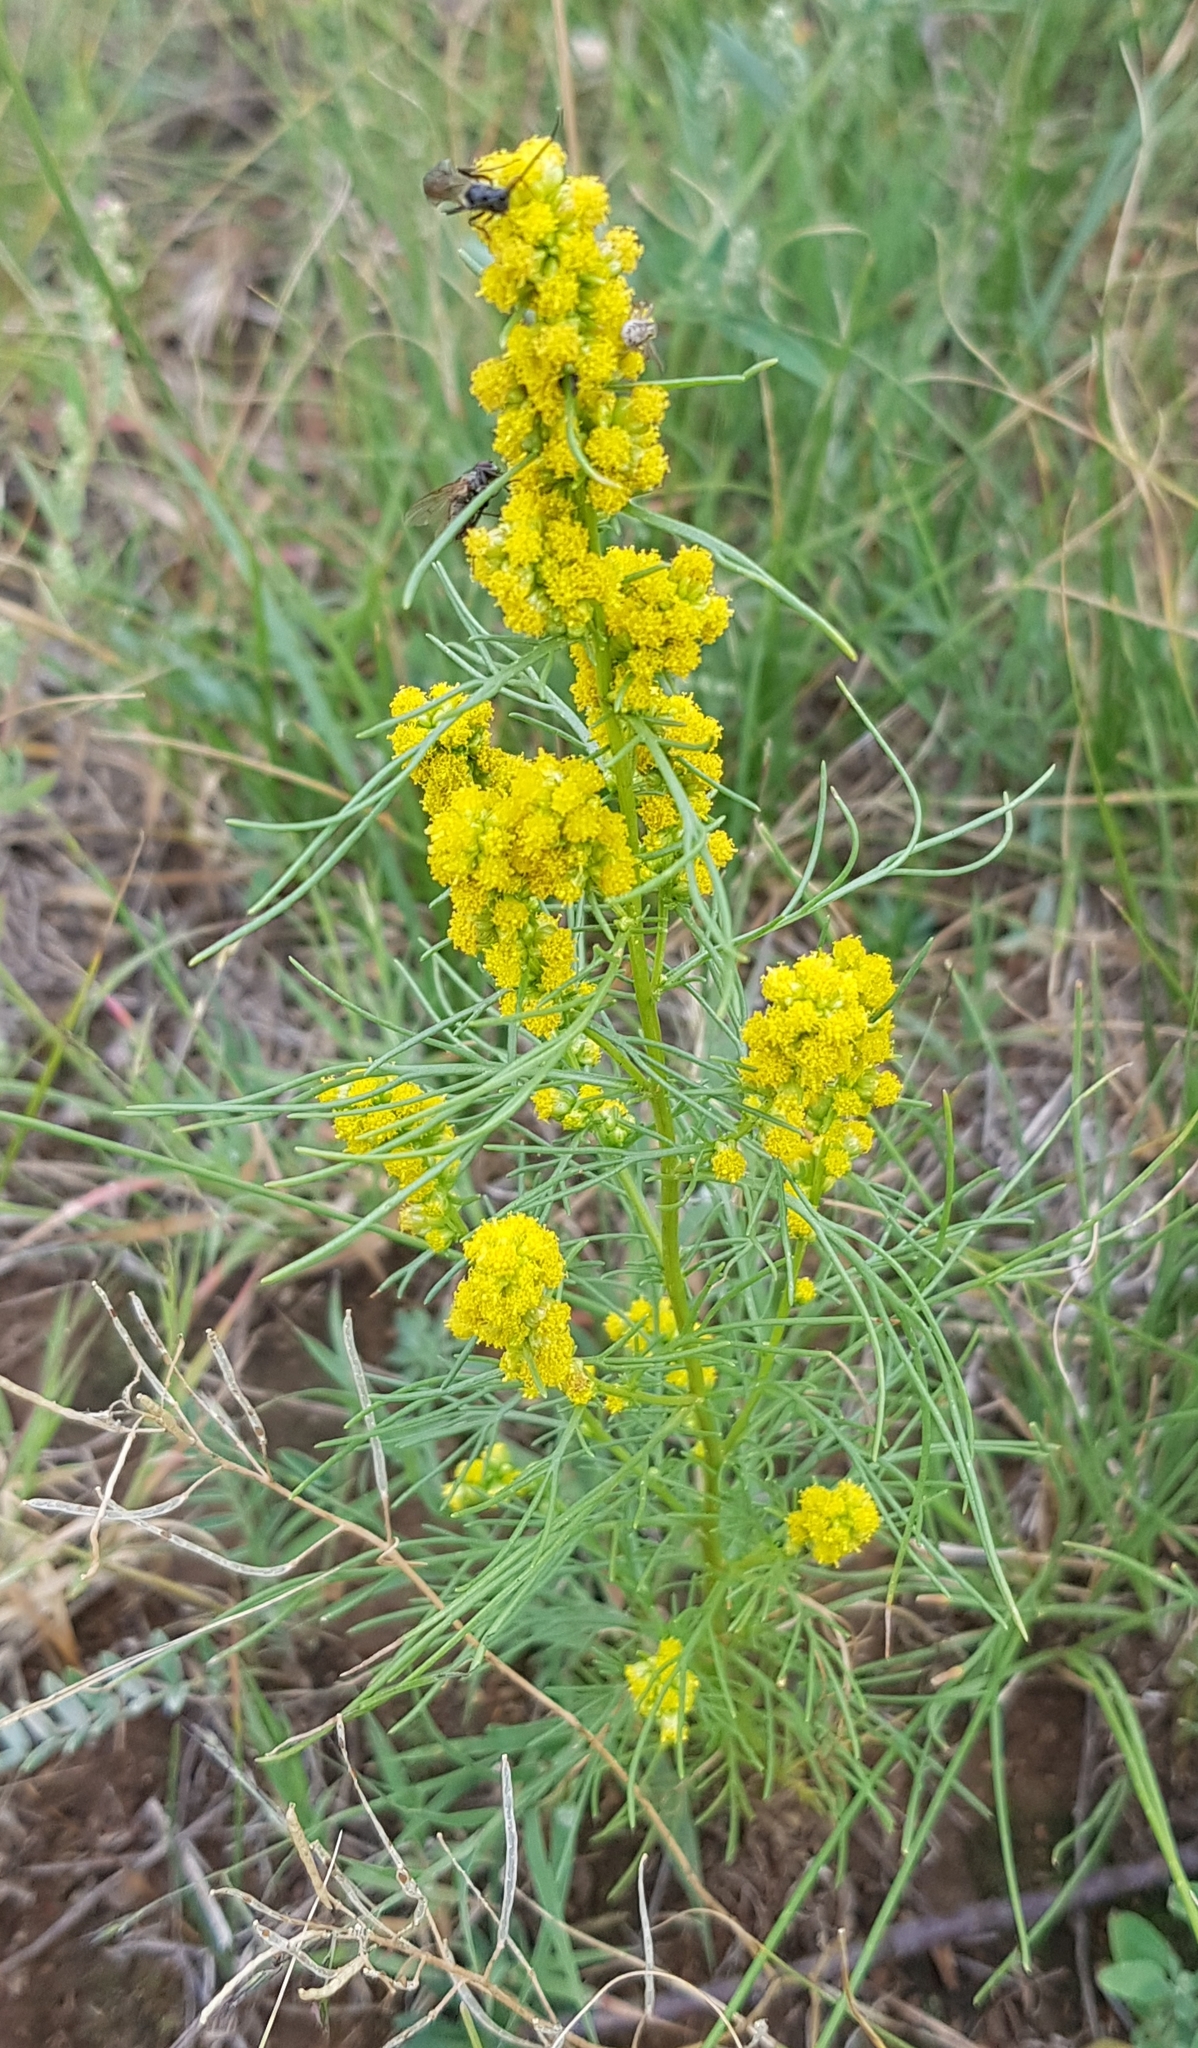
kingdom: Plantae
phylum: Tracheophyta
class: Magnoliopsida
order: Asterales
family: Asteraceae
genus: Artemisia
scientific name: Artemisia palustris
